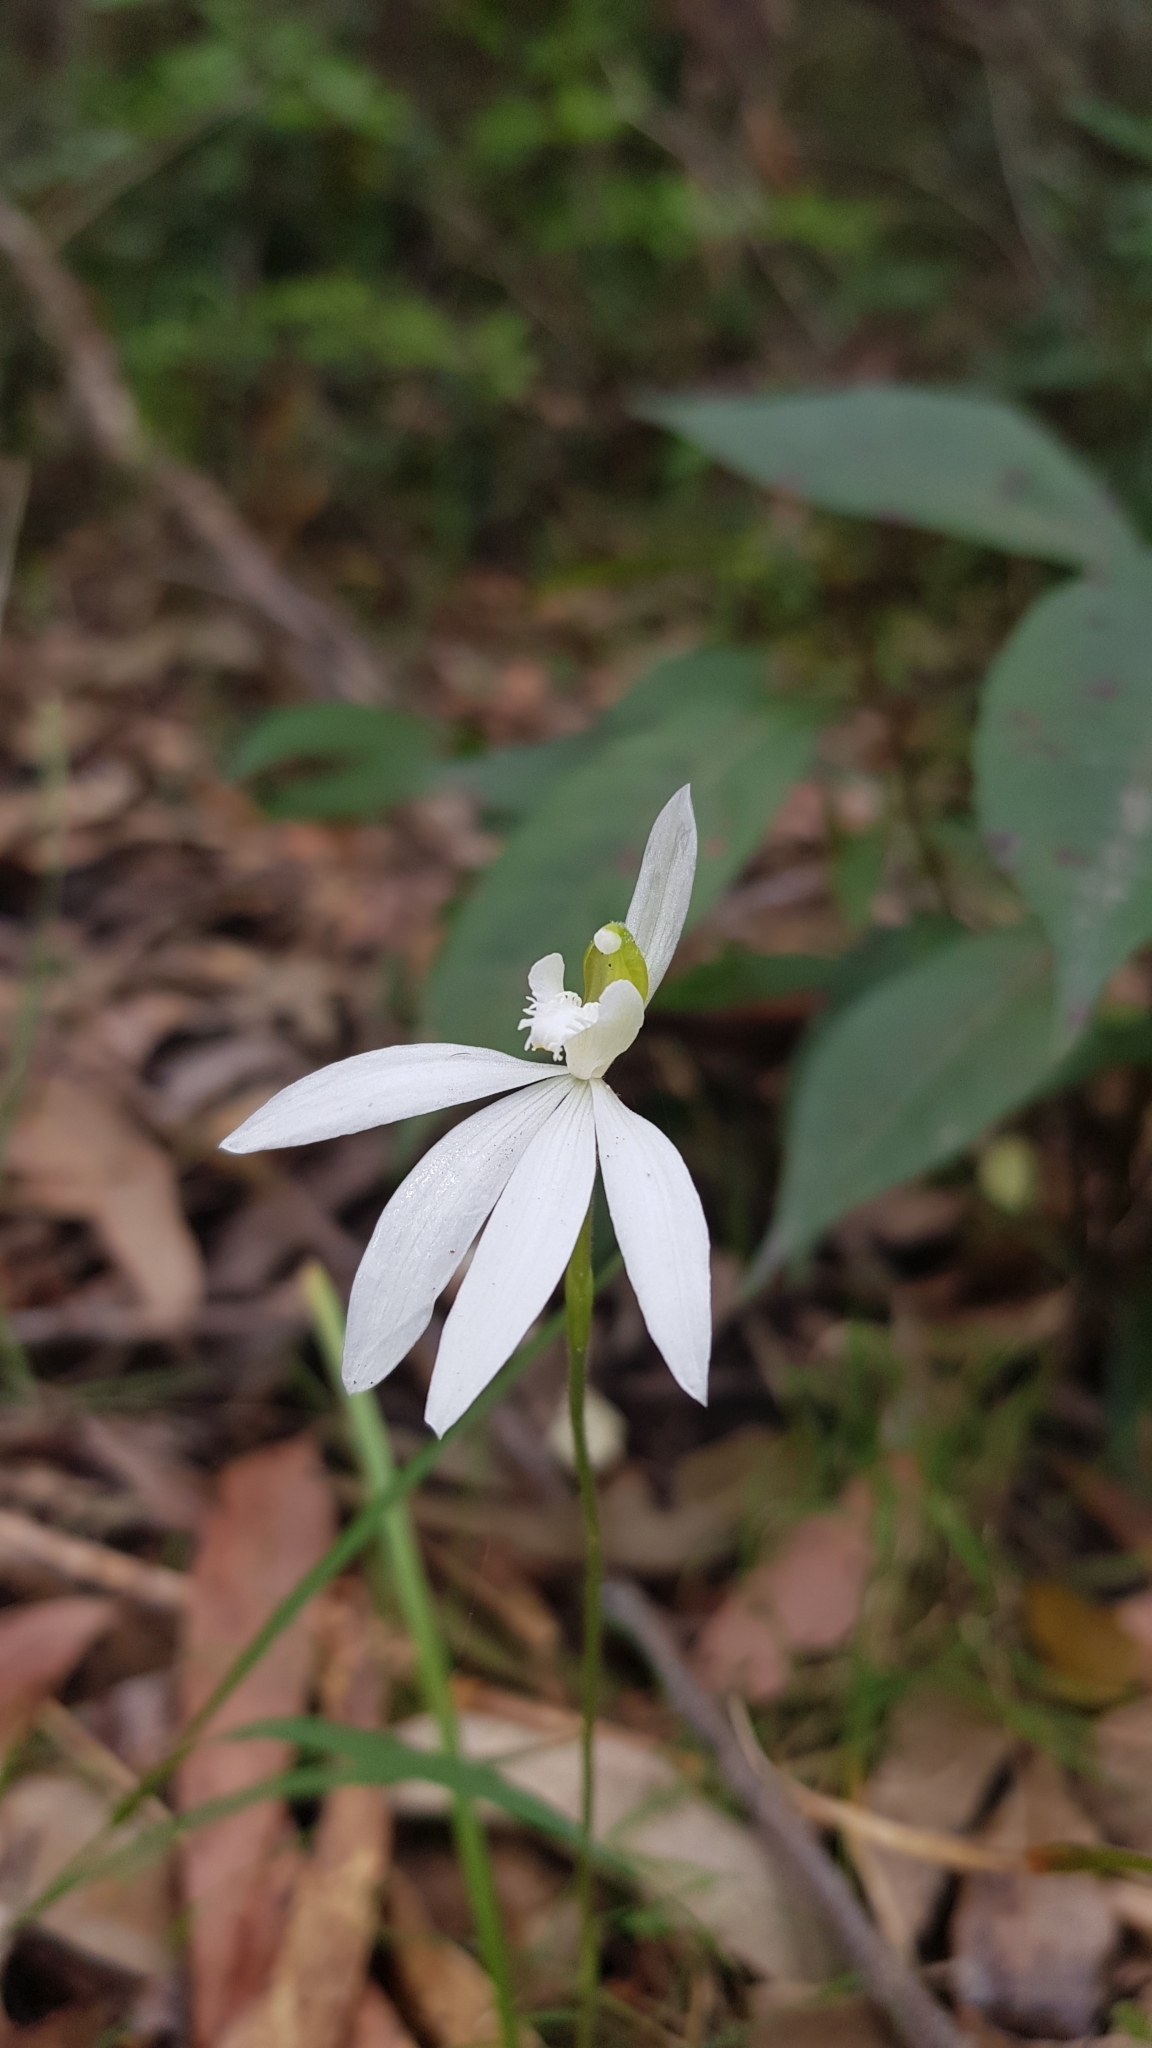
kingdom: Plantae
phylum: Tracheophyta
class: Liliopsida
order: Asparagales
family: Orchidaceae
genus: Caladenia
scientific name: Caladenia catenata
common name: White caladenia
